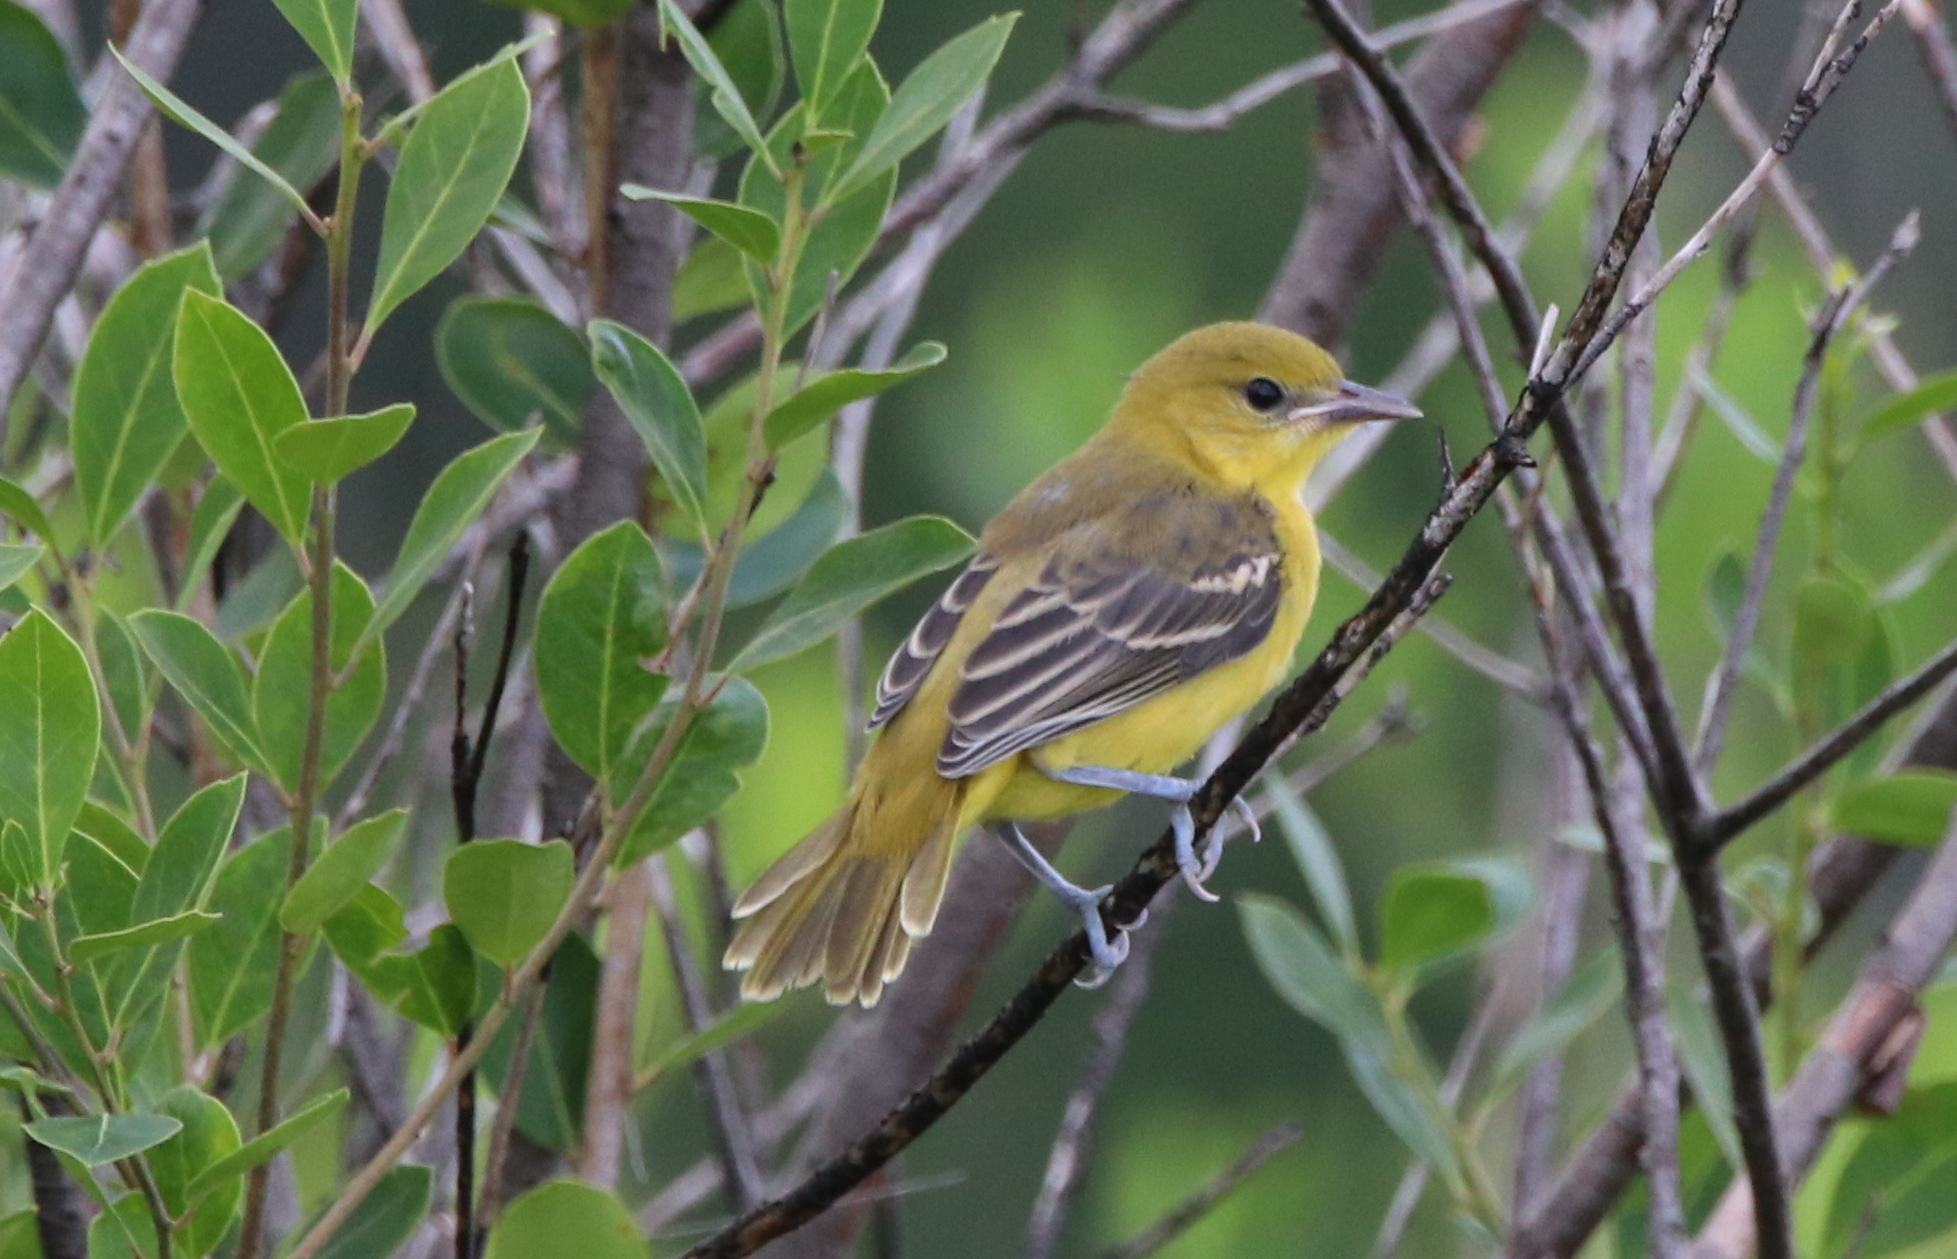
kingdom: Animalia
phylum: Chordata
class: Aves
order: Passeriformes
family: Icteridae
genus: Icterus
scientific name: Icterus spurius
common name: Orchard oriole
